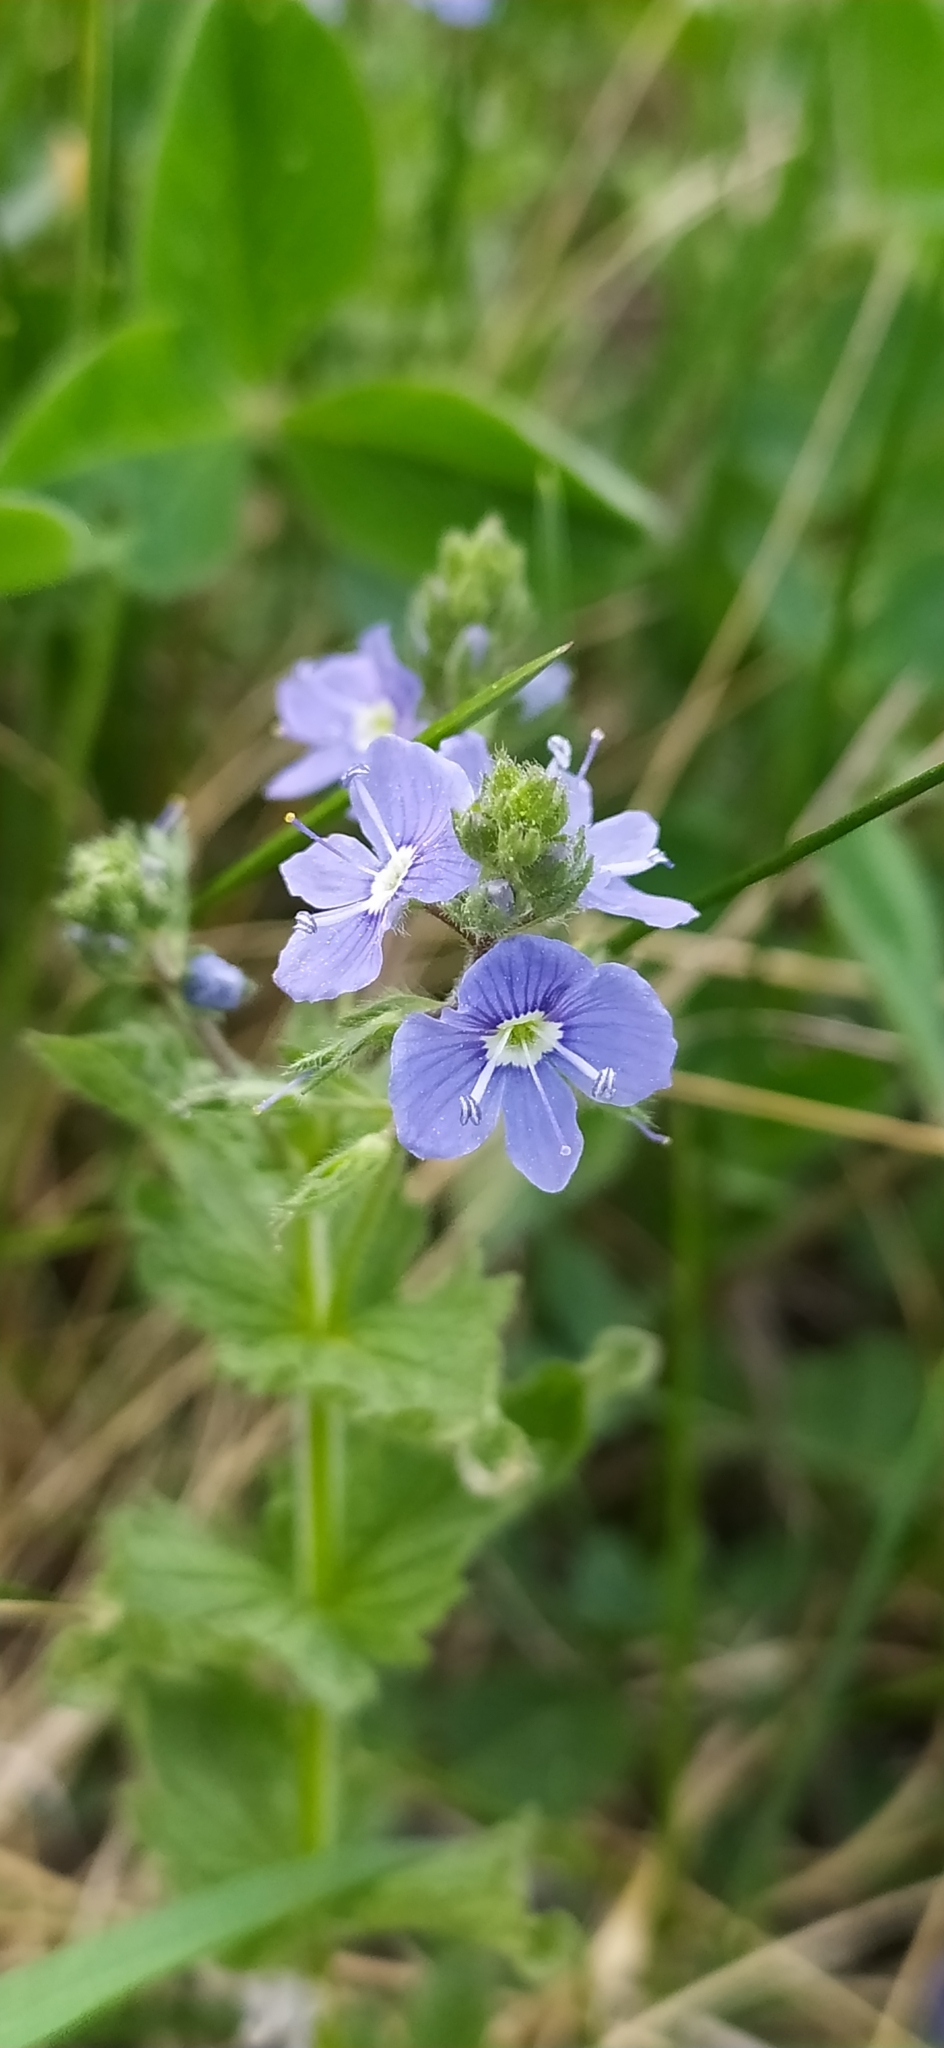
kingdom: Plantae
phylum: Tracheophyta
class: Magnoliopsida
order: Lamiales
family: Plantaginaceae
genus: Veronica
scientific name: Veronica chamaedrys
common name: Germander speedwell
